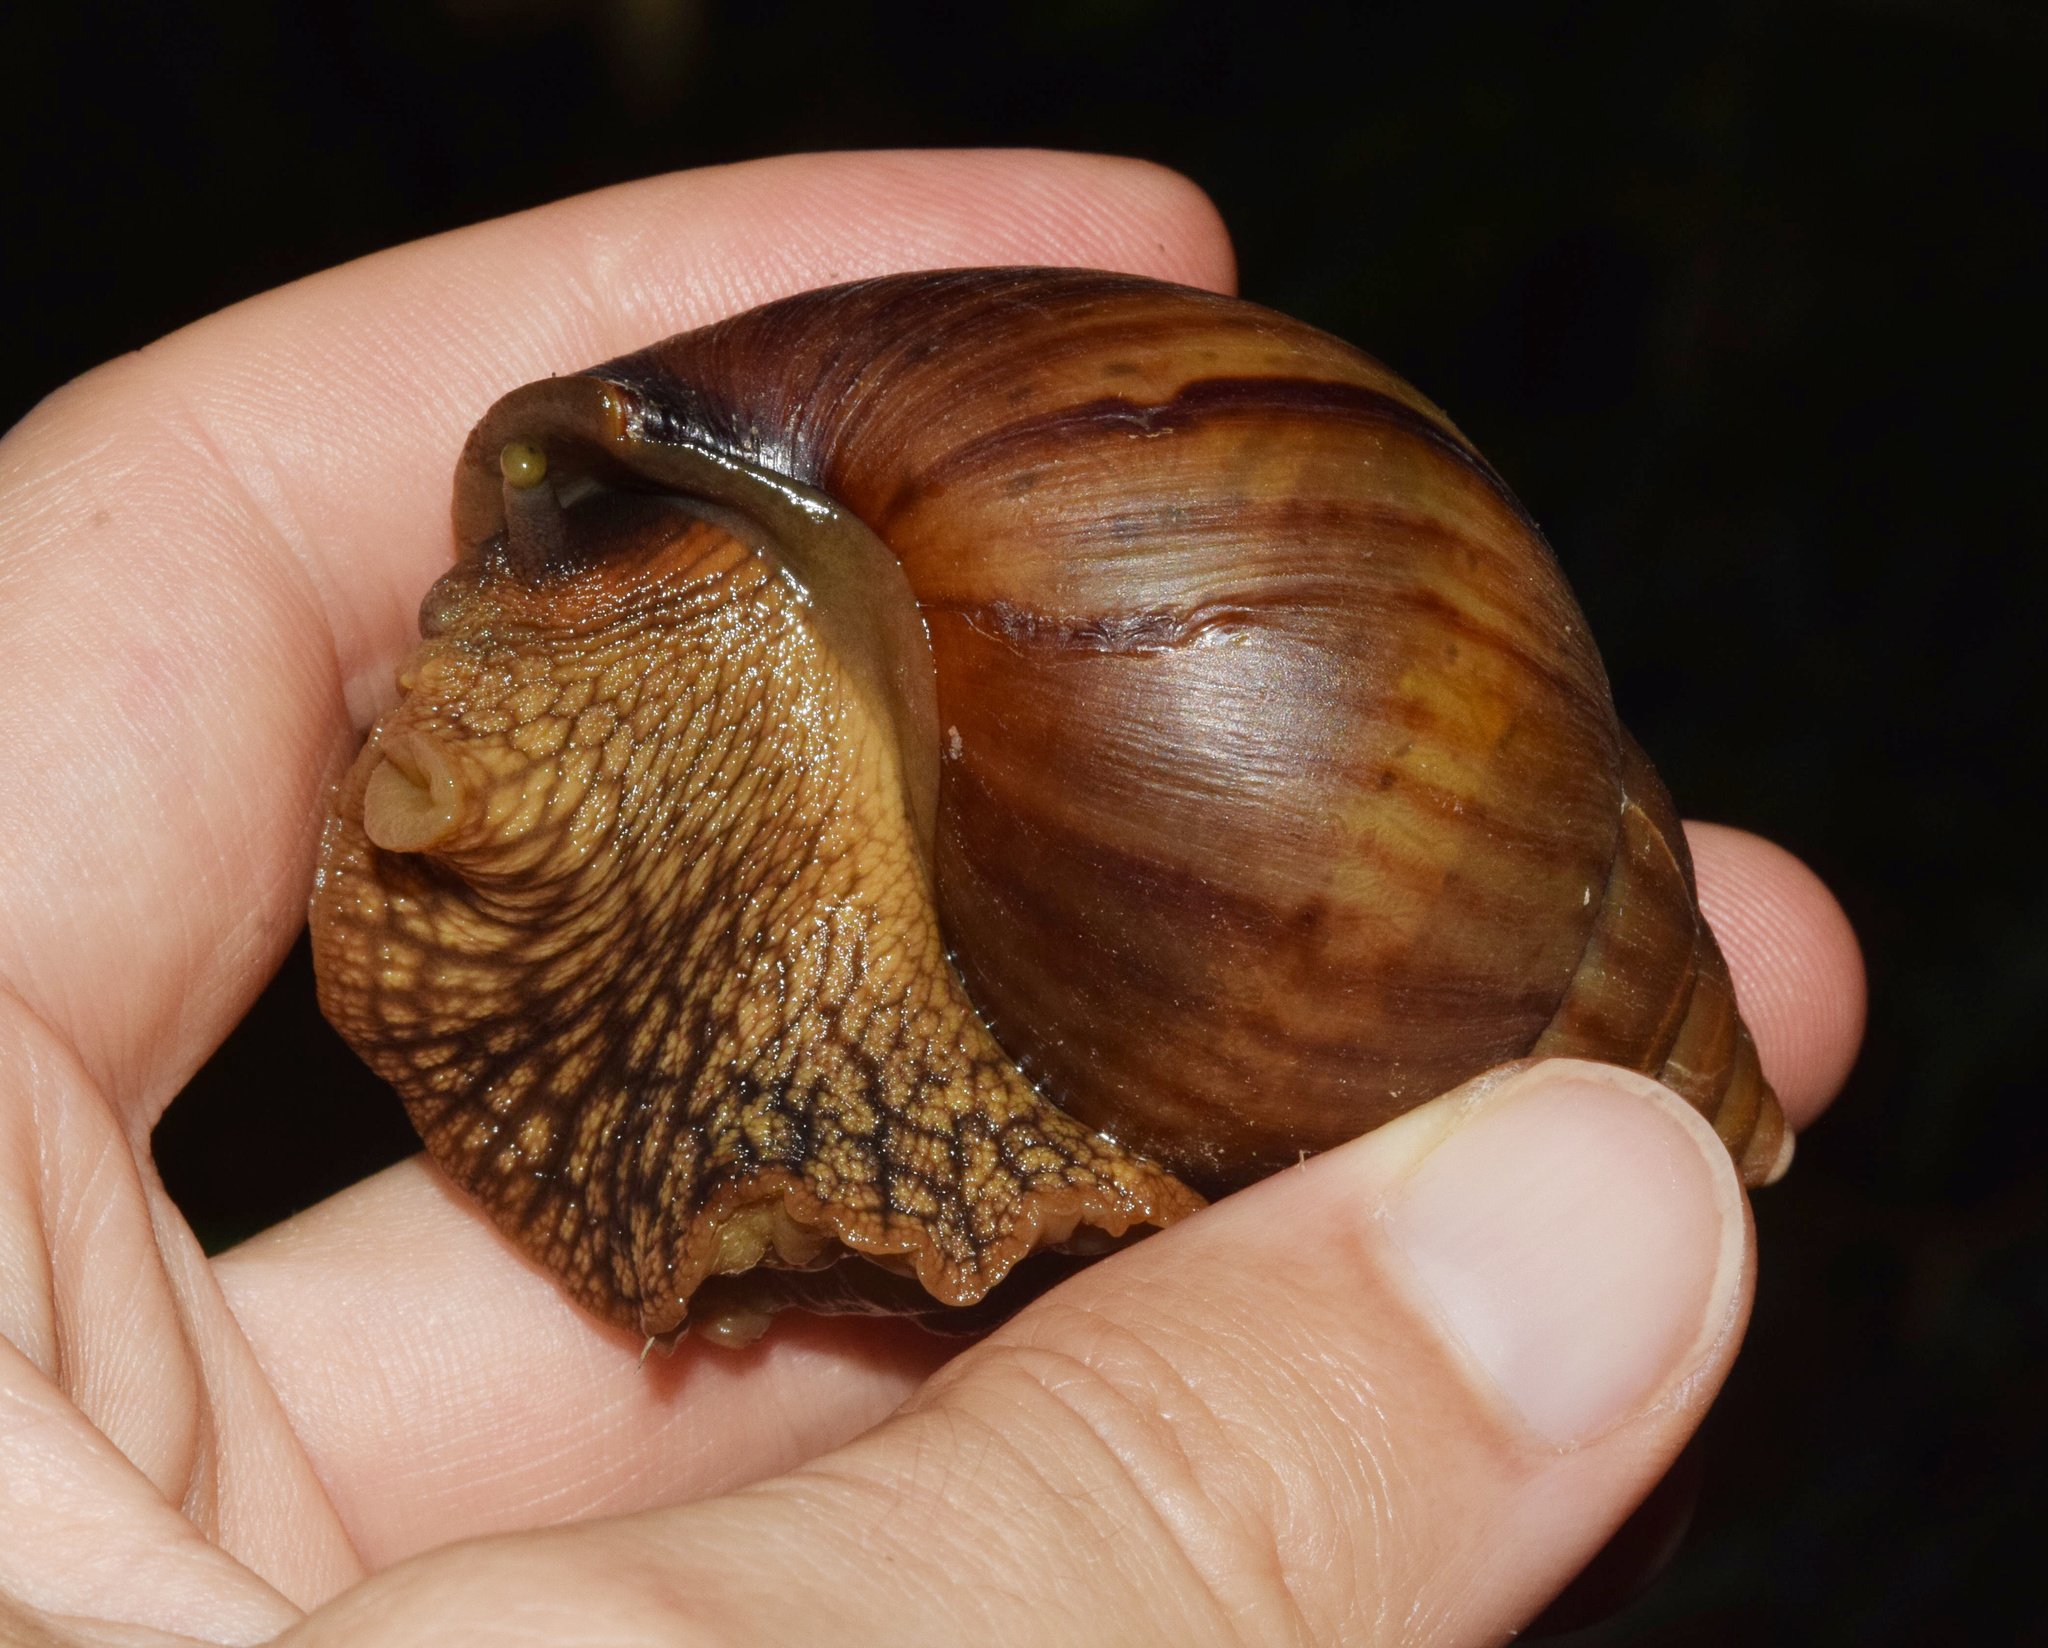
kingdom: Animalia
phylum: Mollusca
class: Gastropoda
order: Stylommatophora
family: Achatinidae
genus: Cochlitoma
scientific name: Cochlitoma granulata
